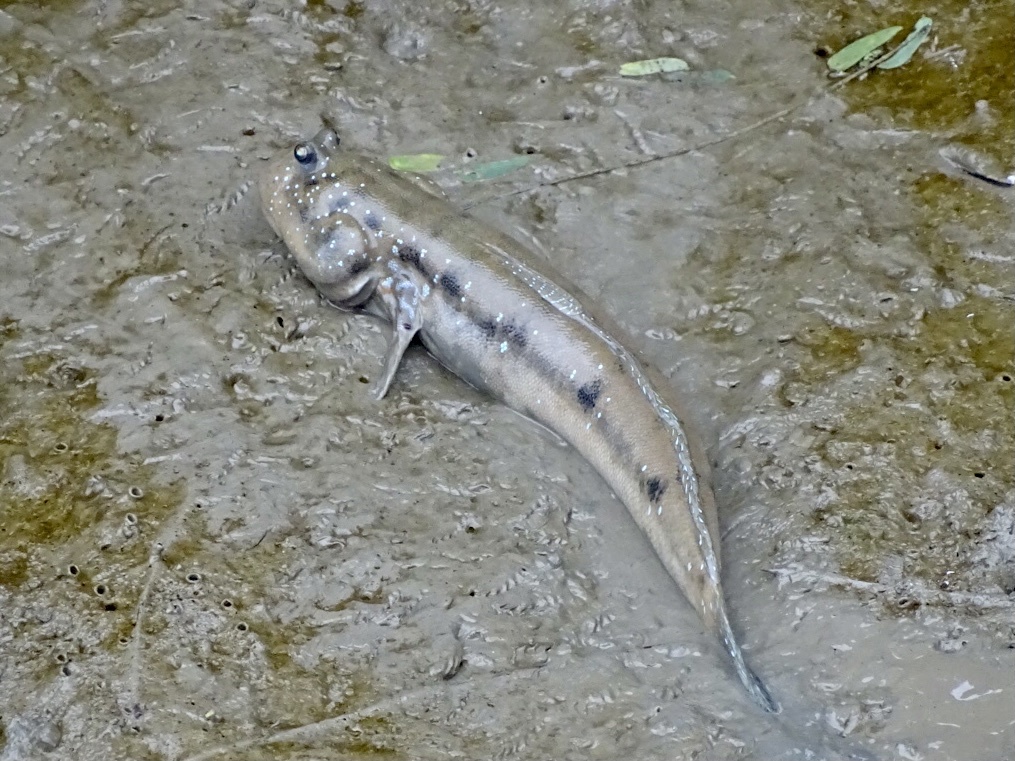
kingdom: Animalia
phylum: Chordata
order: Perciformes
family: Gobiidae
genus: Boleophthalmus
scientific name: Boleophthalmus pectinirostris
